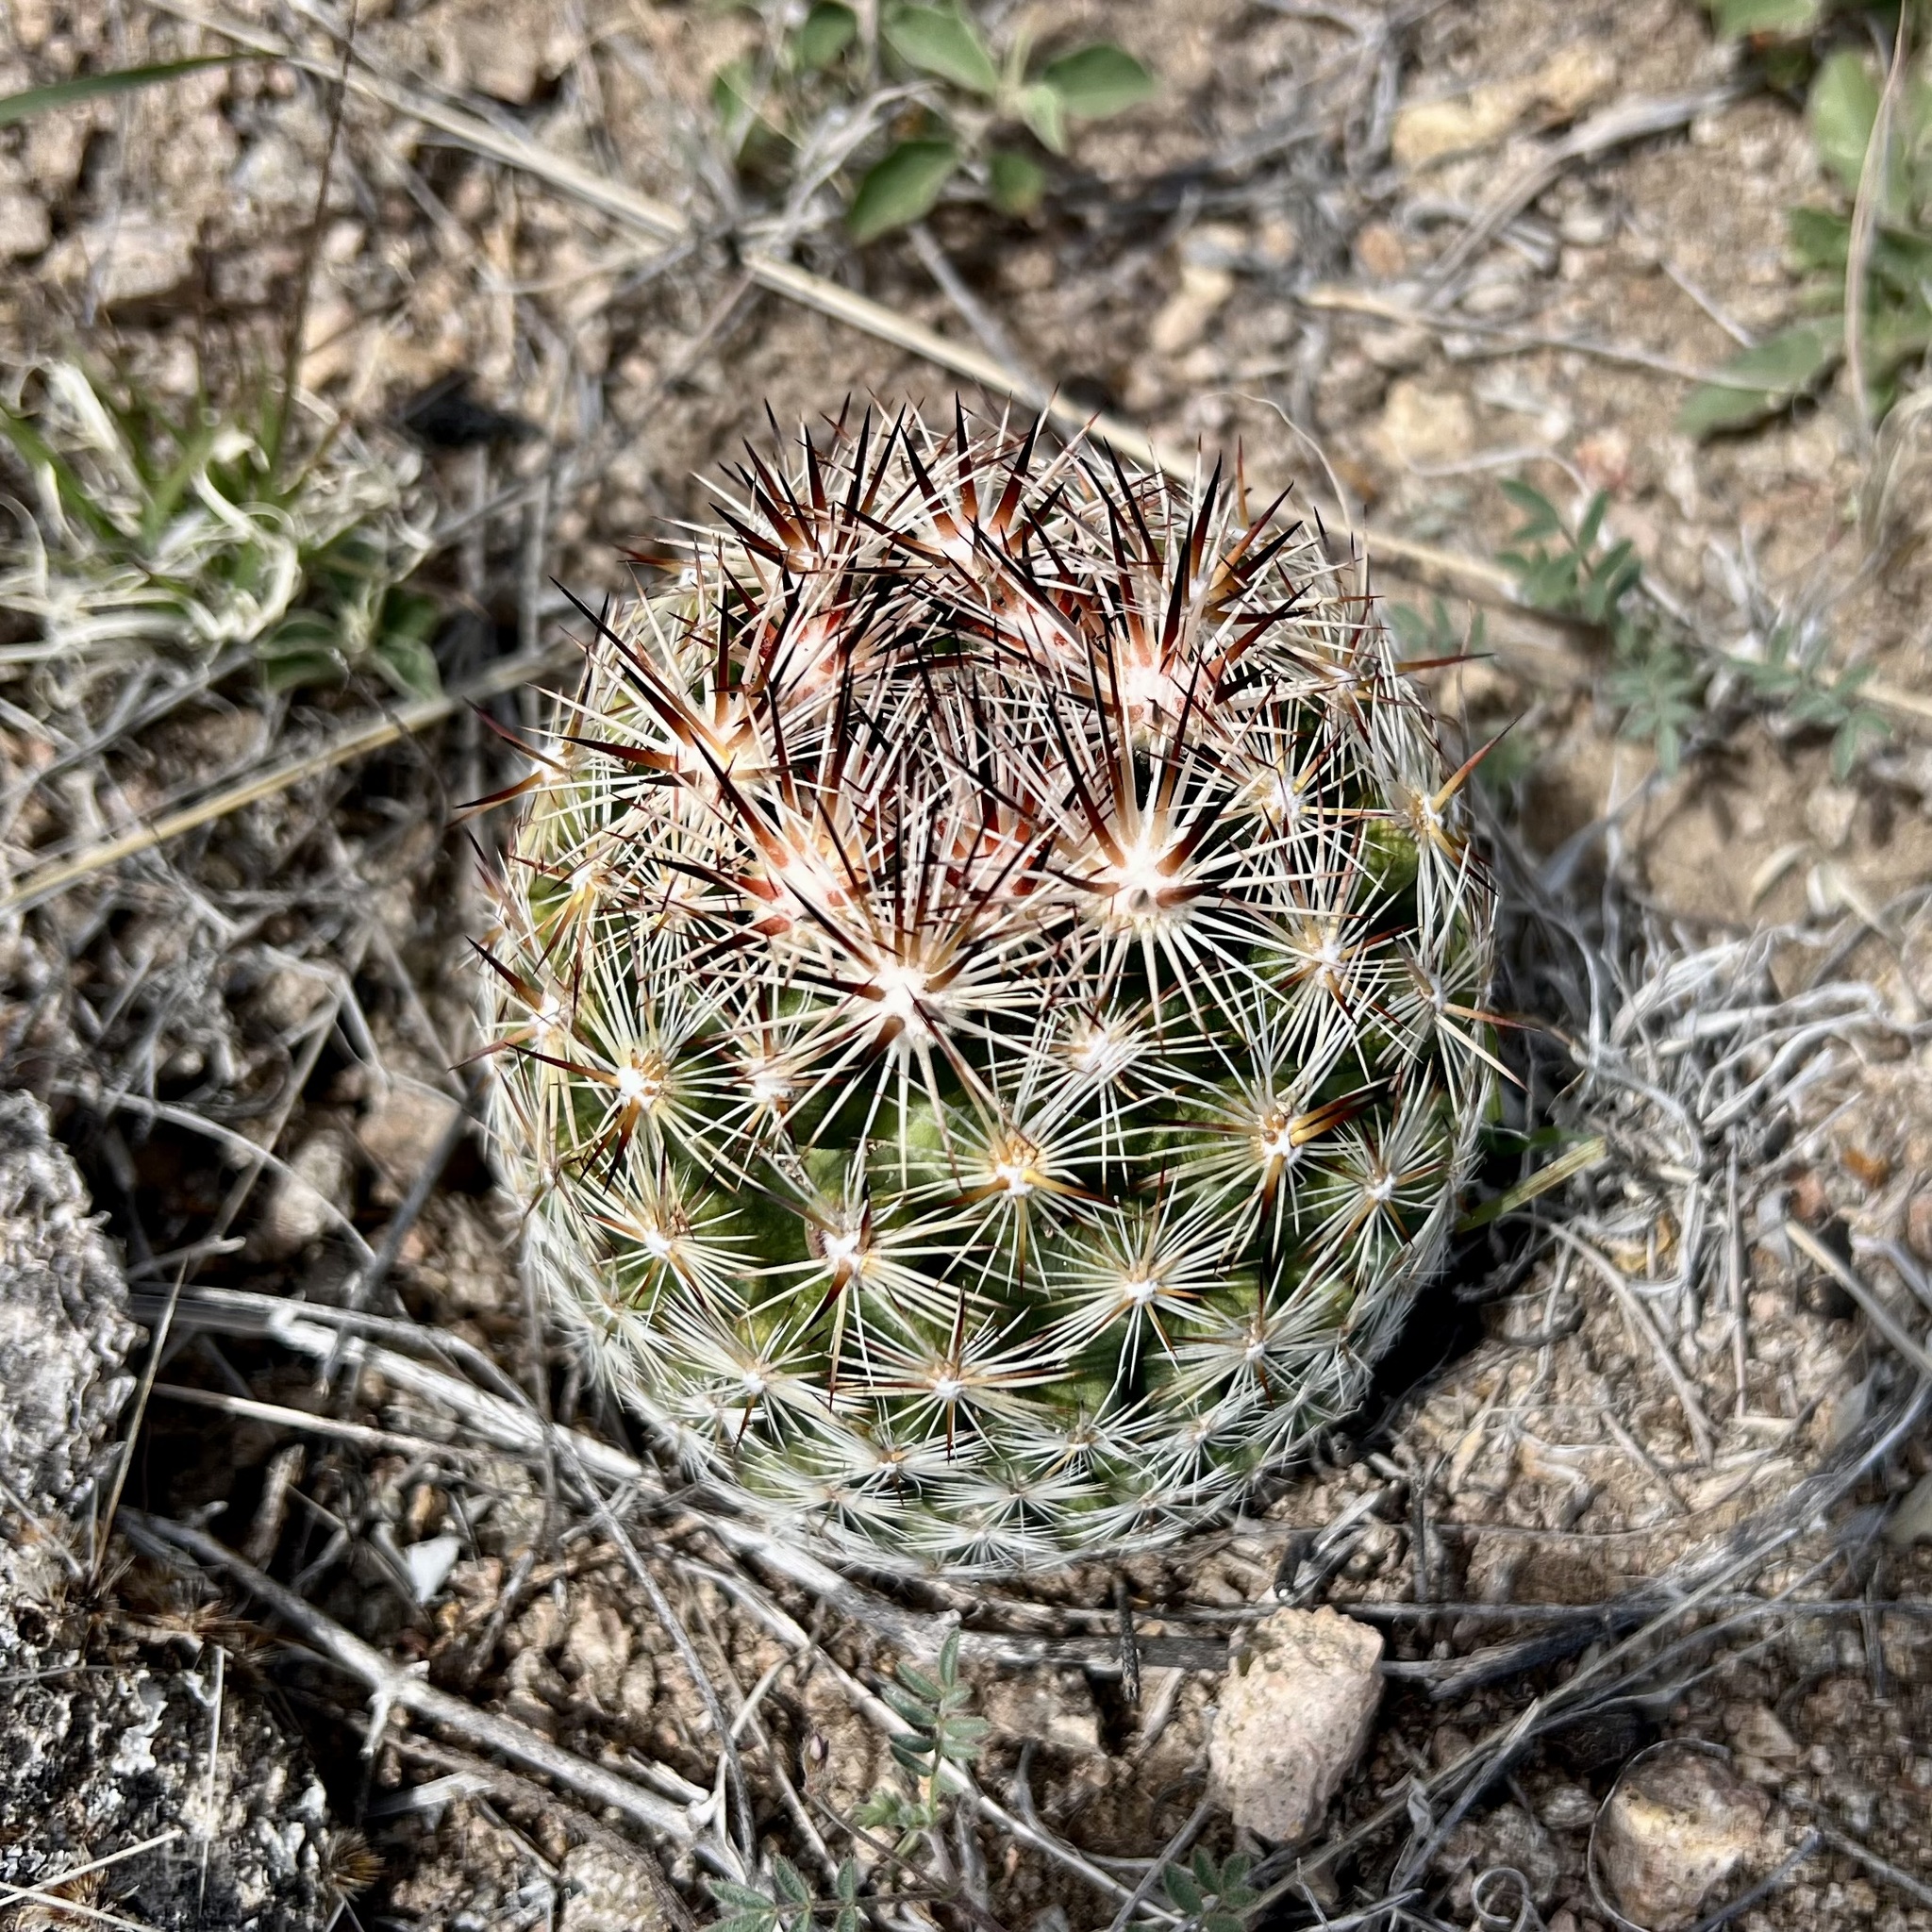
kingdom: Plantae
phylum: Tracheophyta
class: Magnoliopsida
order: Caryophyllales
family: Cactaceae
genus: Pelecyphora
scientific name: Pelecyphora vivipara
